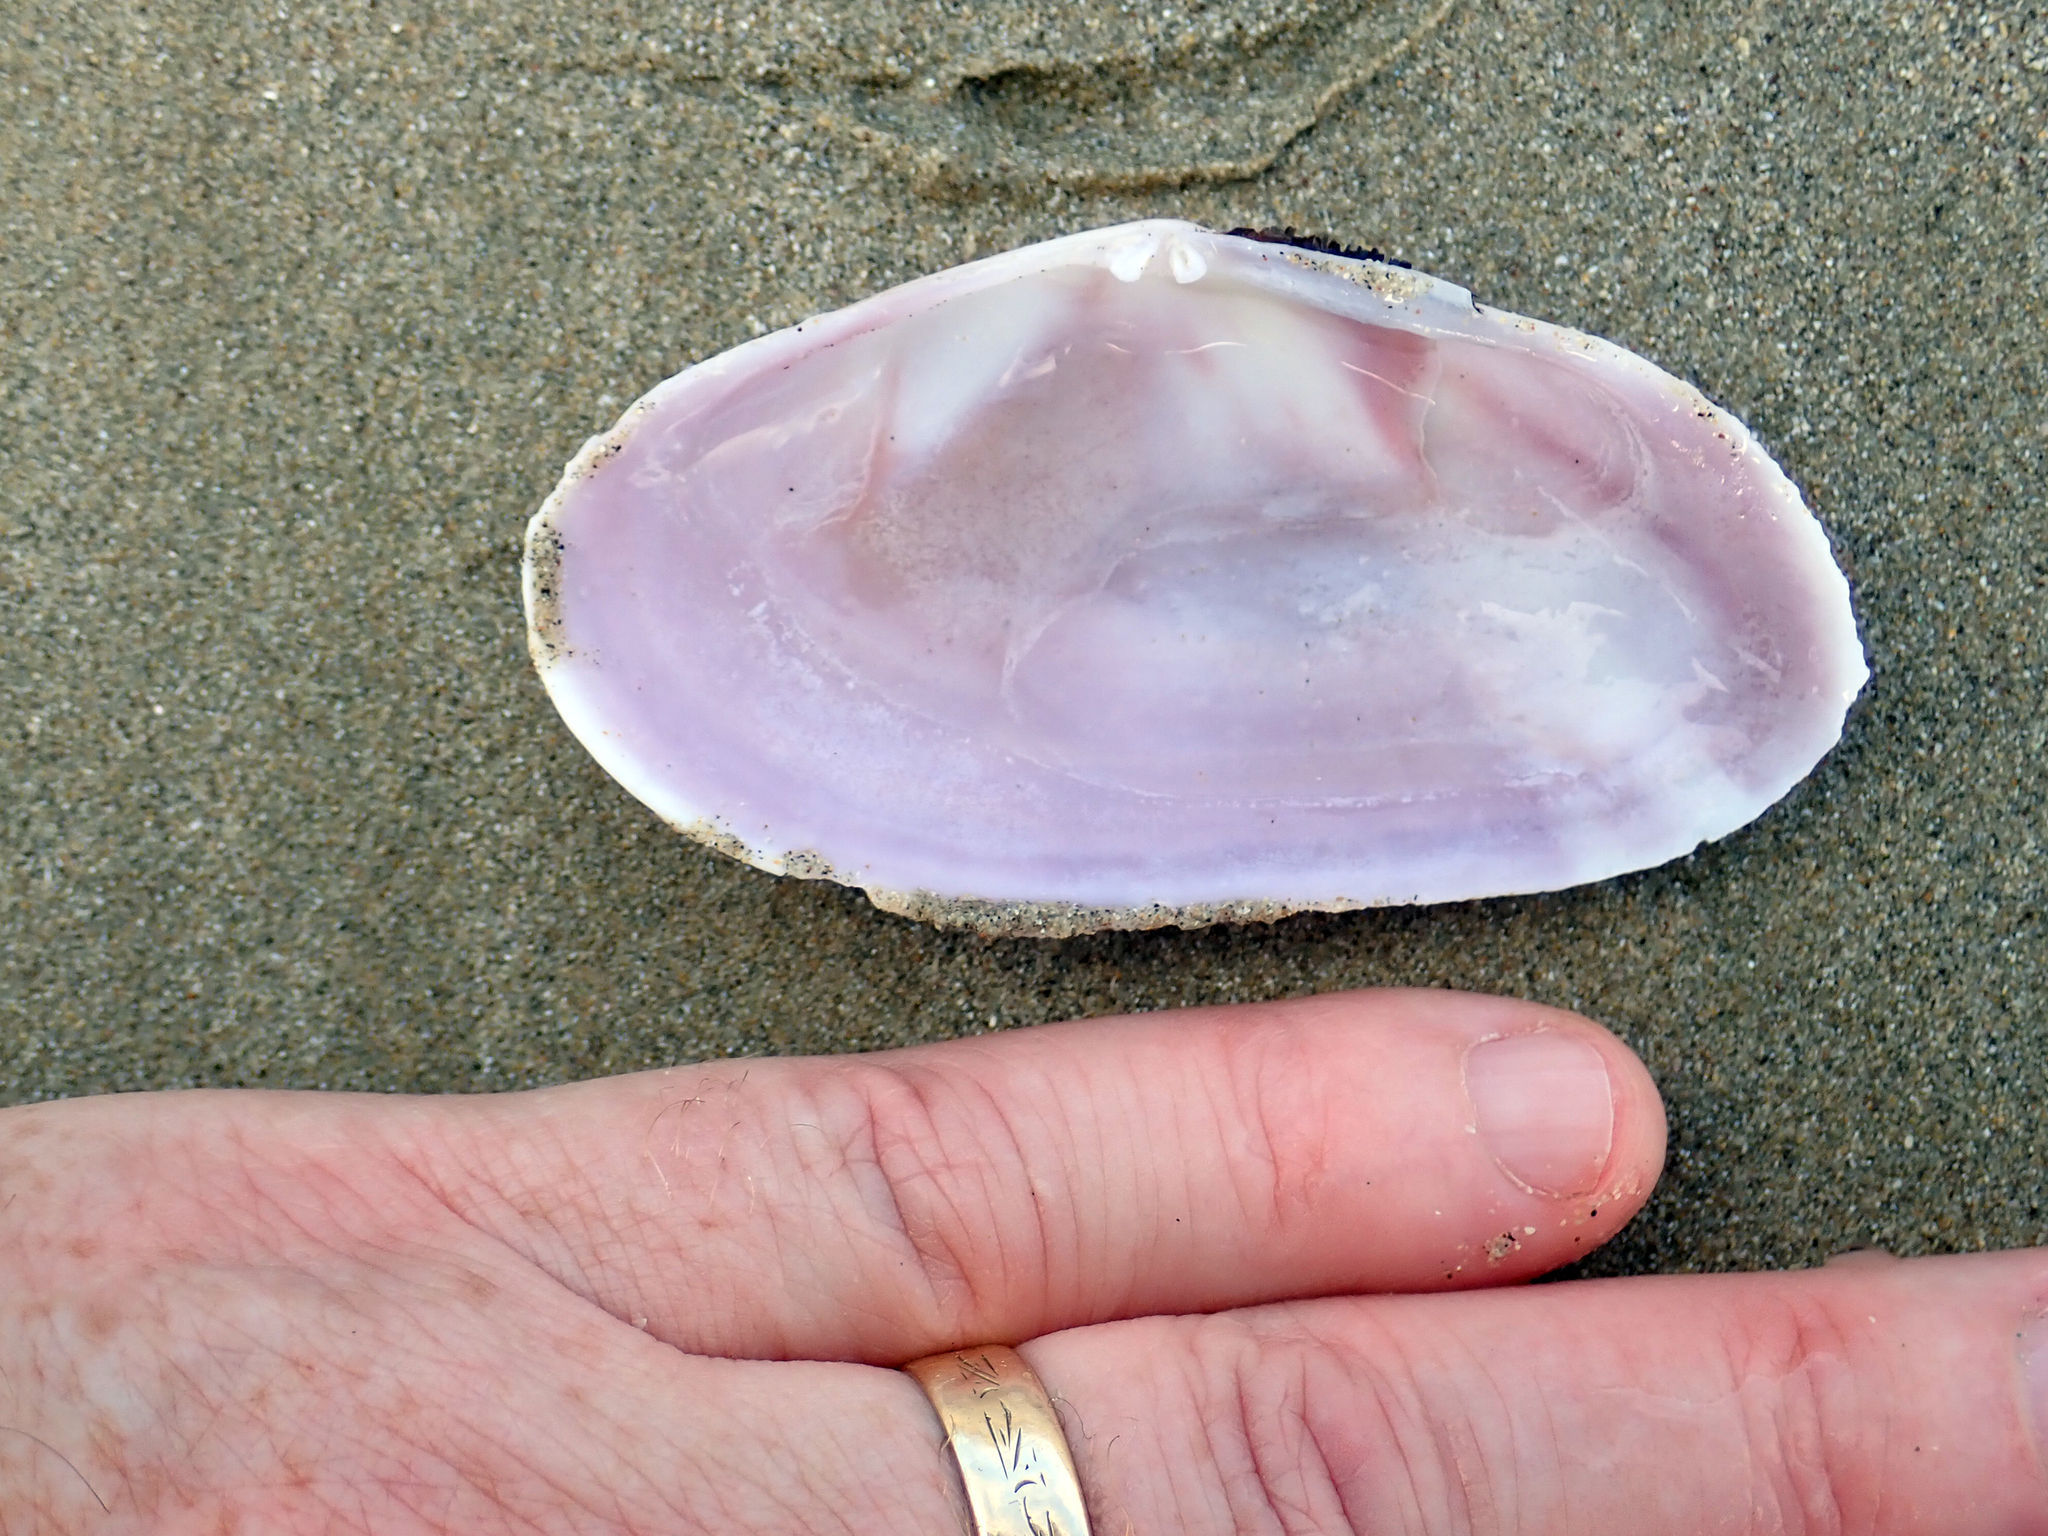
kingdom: Animalia
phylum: Mollusca
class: Bivalvia
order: Cardiida
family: Psammobiidae
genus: Gari
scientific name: Gari convexa
